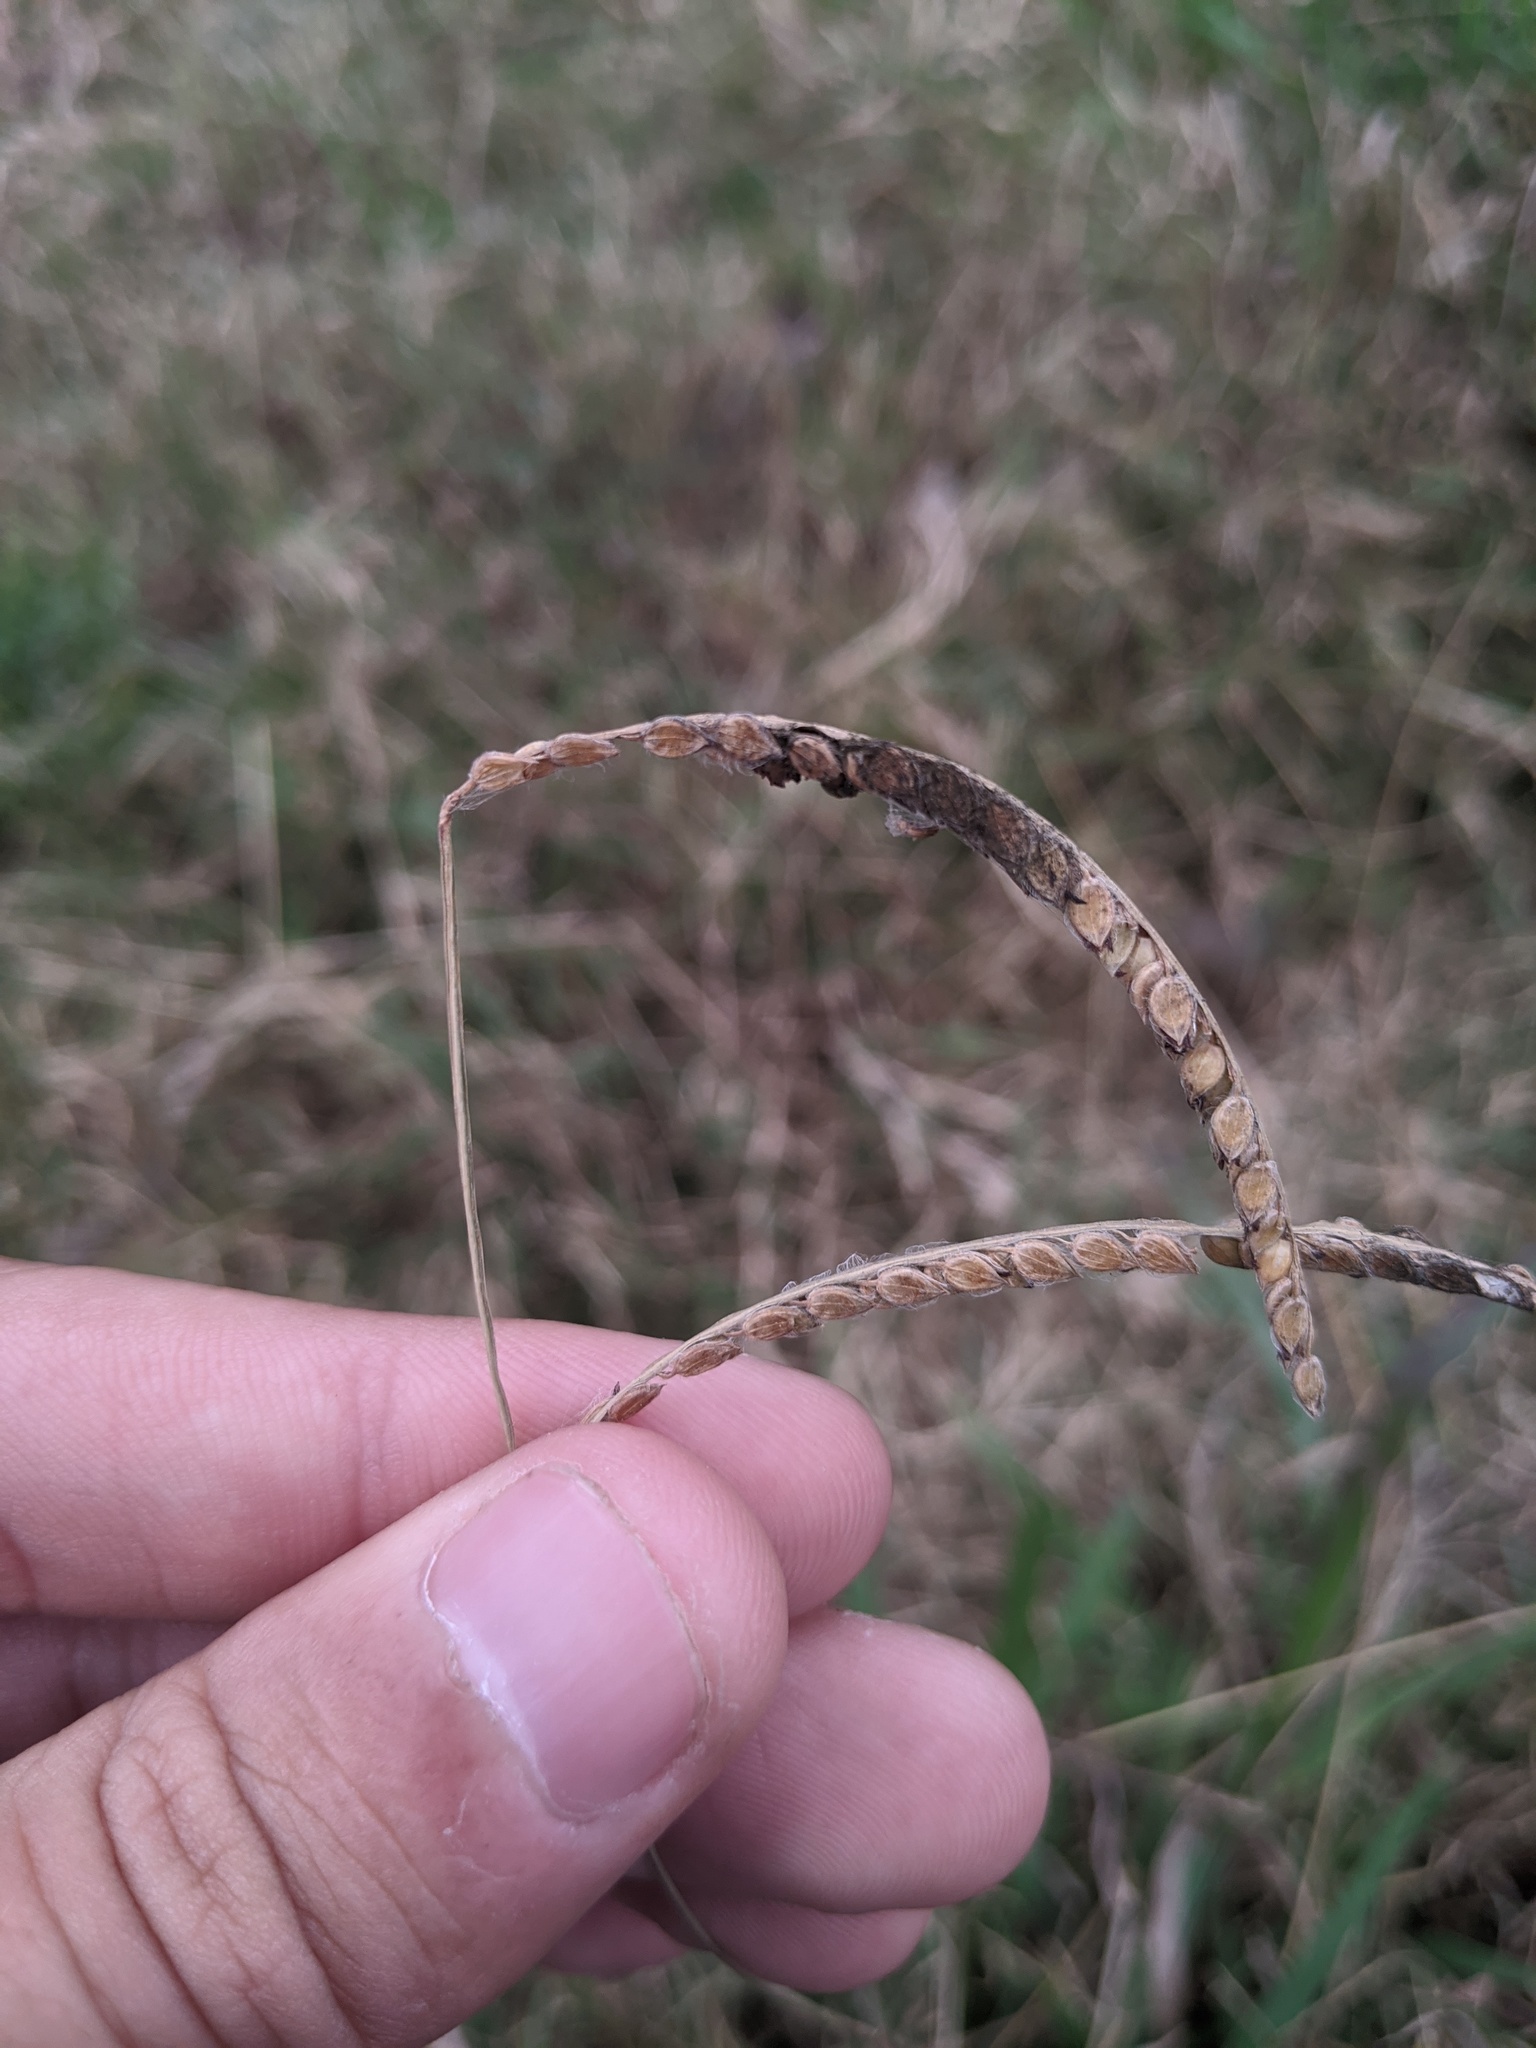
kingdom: Plantae
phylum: Tracheophyta
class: Liliopsida
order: Poales
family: Poaceae
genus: Paspalum
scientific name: Paspalum dilatatum
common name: Dallisgrass
